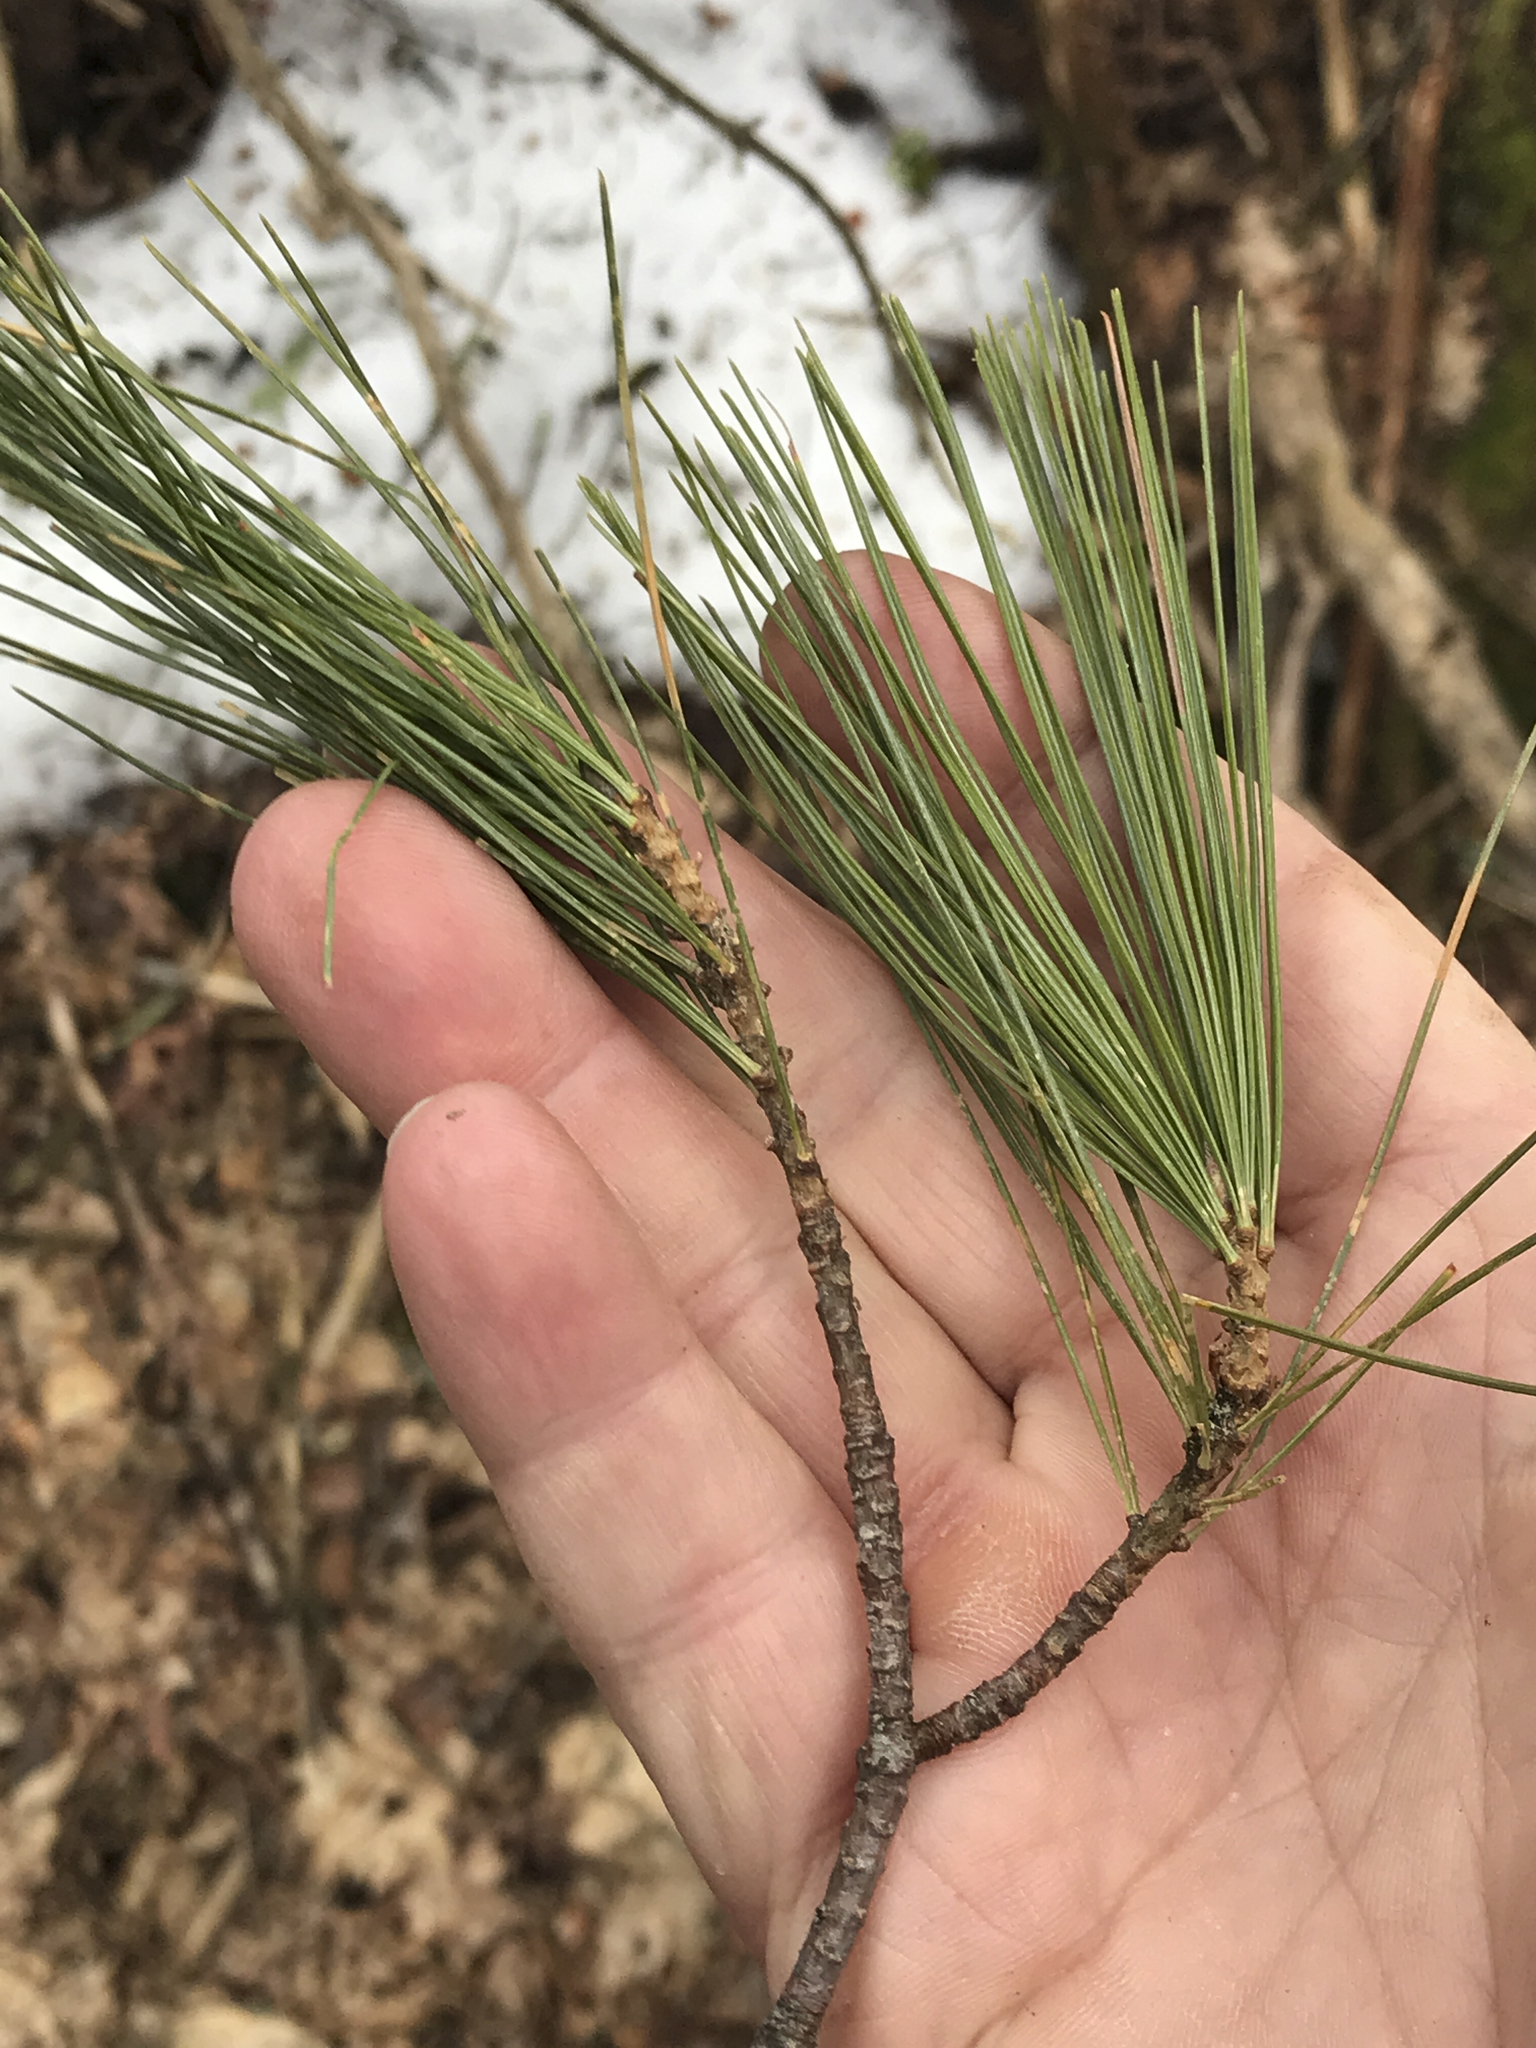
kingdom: Plantae
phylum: Tracheophyta
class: Pinopsida
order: Pinales
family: Pinaceae
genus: Pinus
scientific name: Pinus strobus
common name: Weymouth pine
